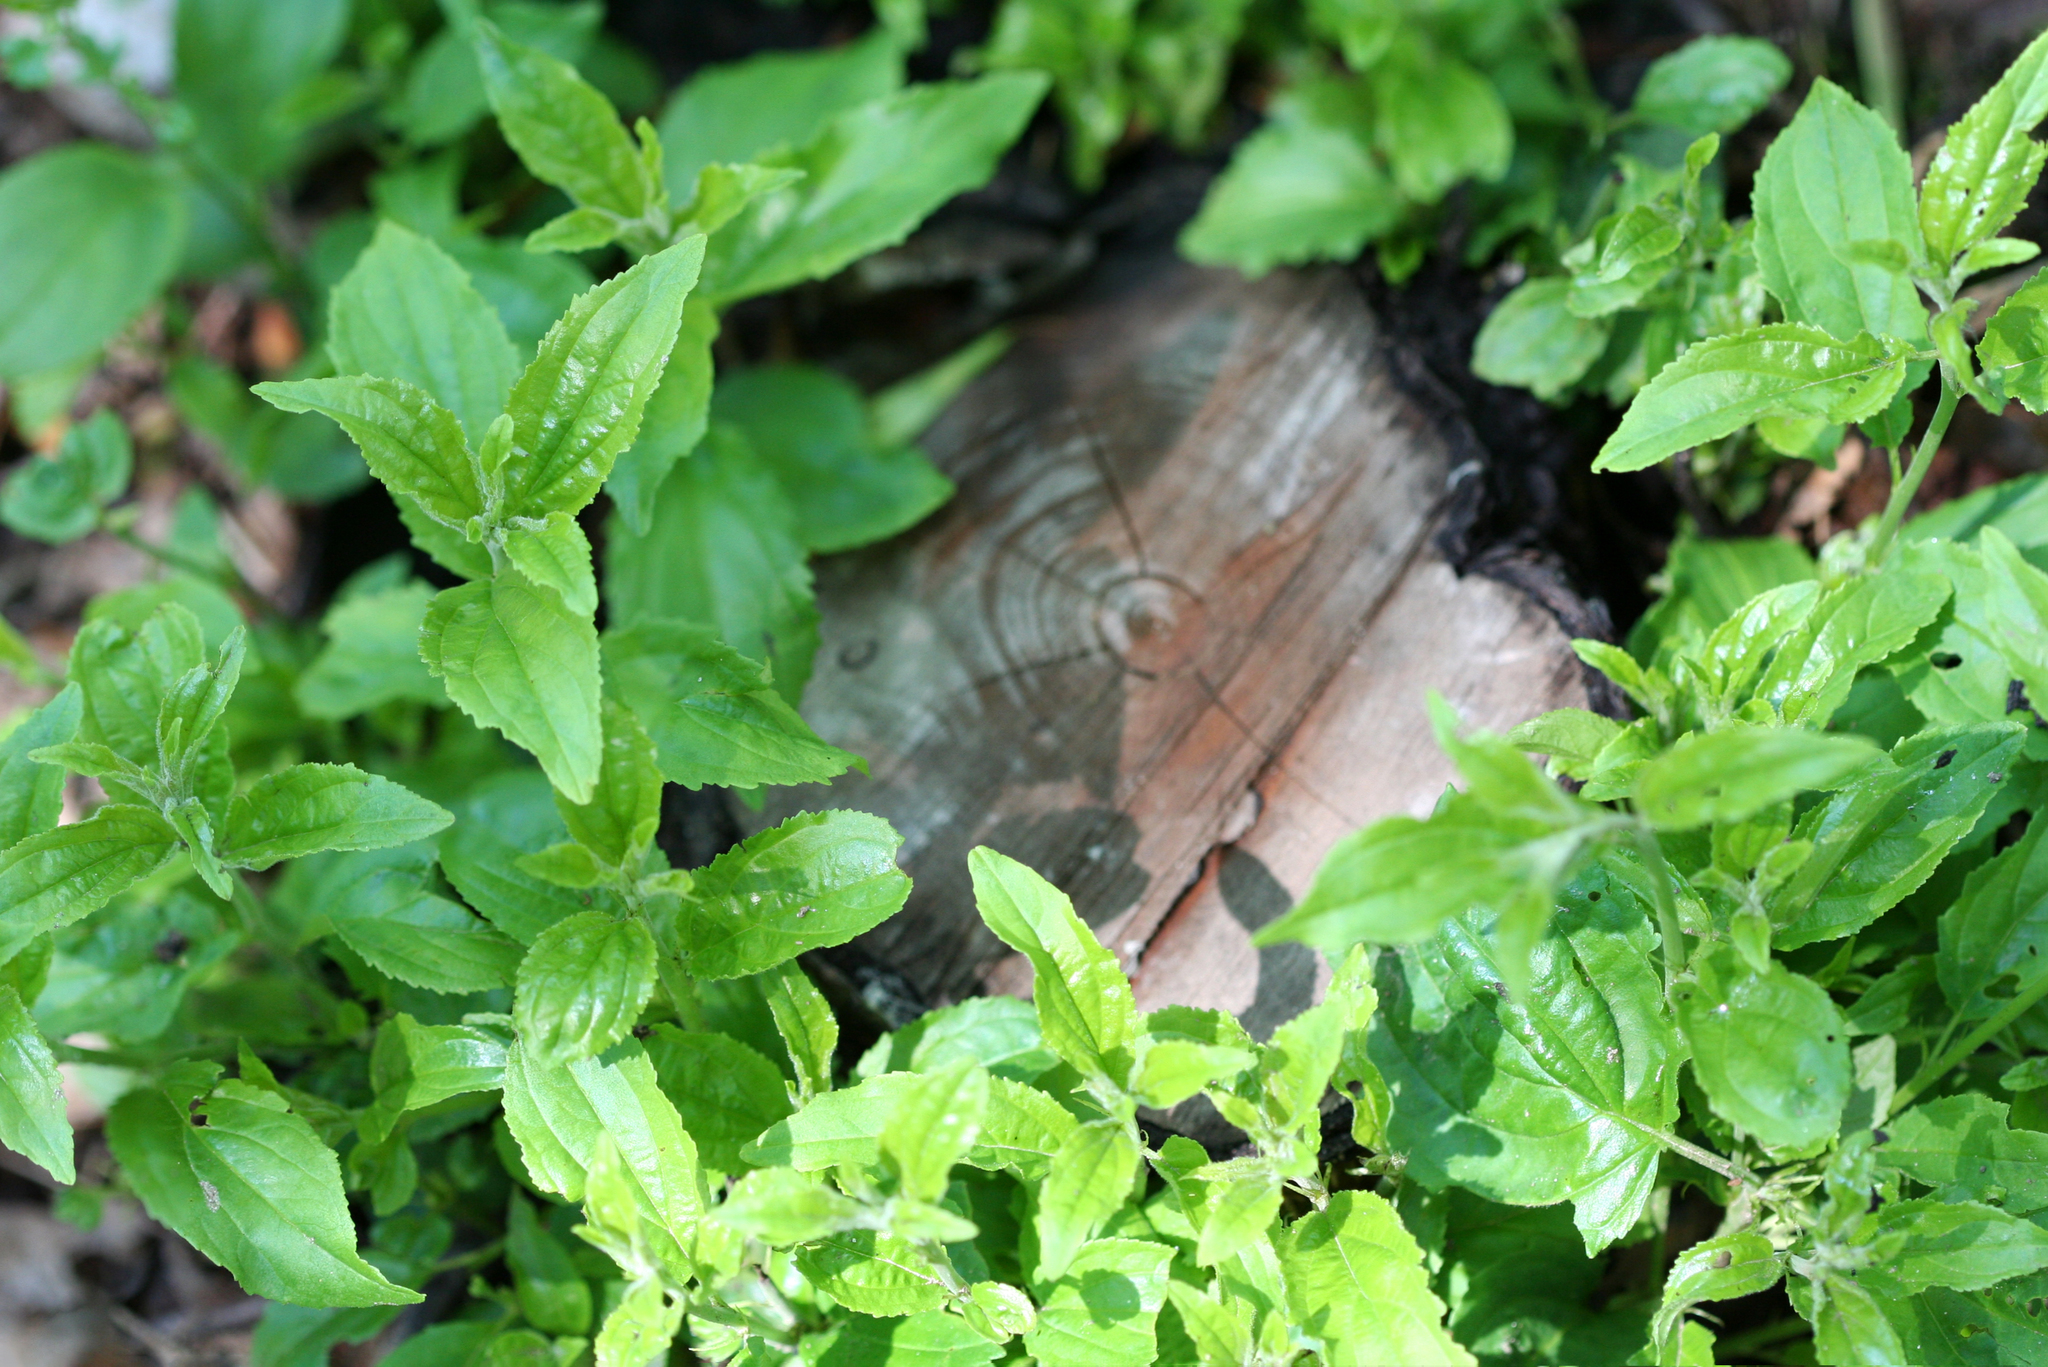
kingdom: Plantae
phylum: Tracheophyta
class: Magnoliopsida
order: Rosales
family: Rhamnaceae
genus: Rhamnus
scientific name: Rhamnus cathartica
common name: Common buckthorn
